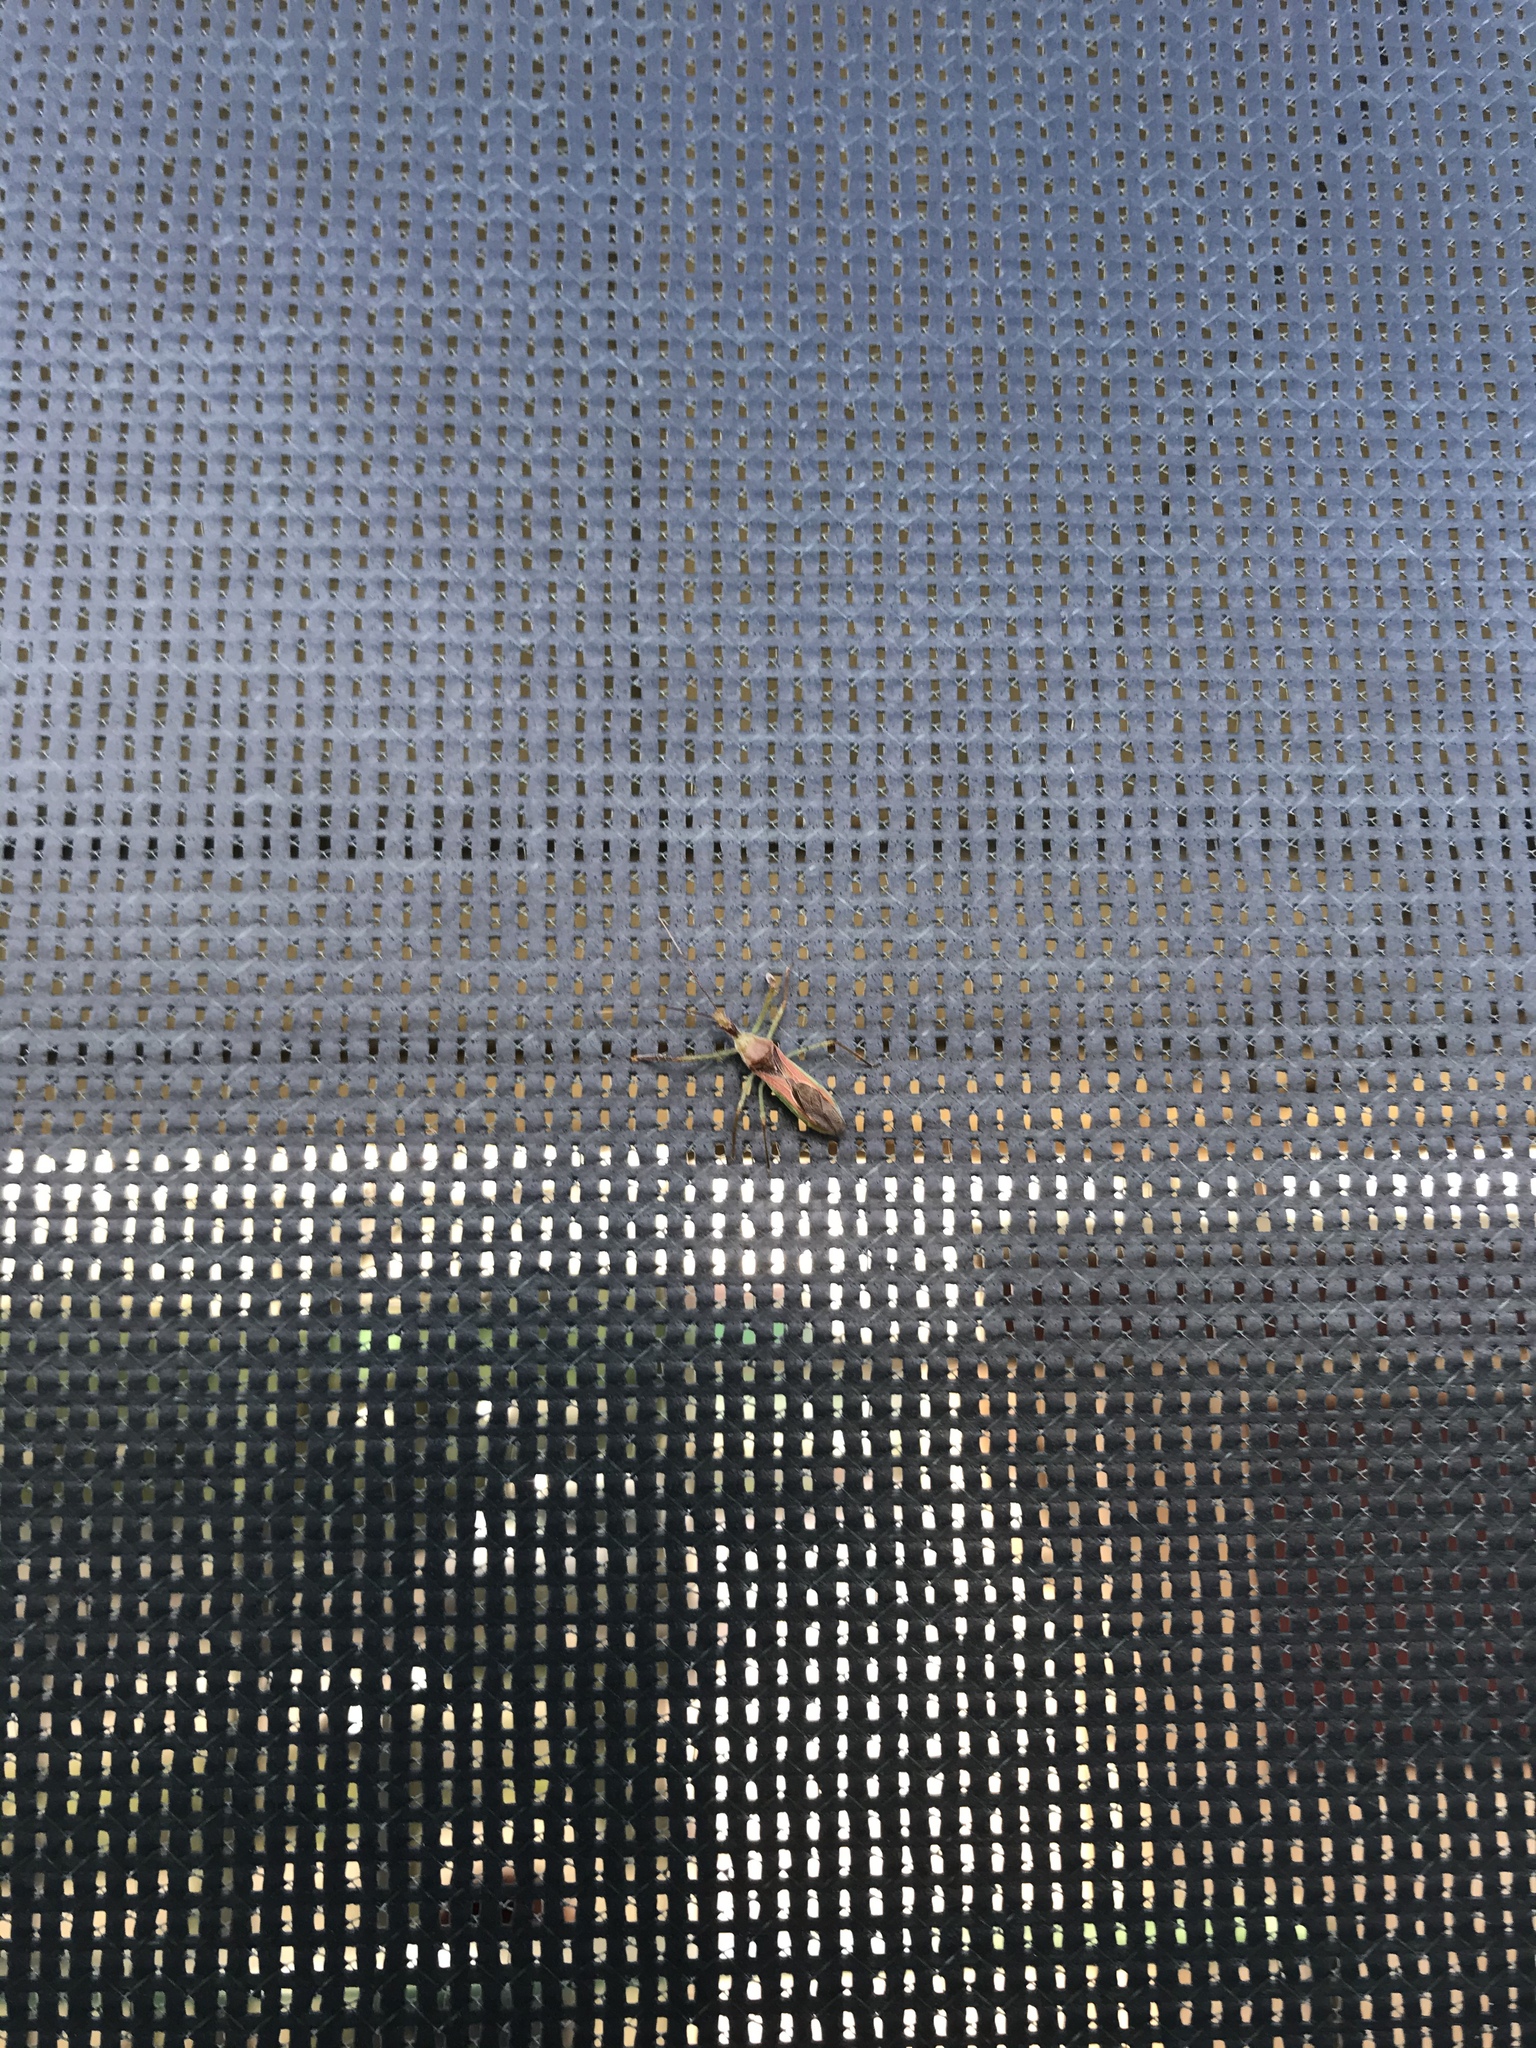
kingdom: Animalia
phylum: Arthropoda
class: Insecta
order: Hemiptera
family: Reduviidae
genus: Zelus
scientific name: Zelus renardii
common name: Assassin bug
